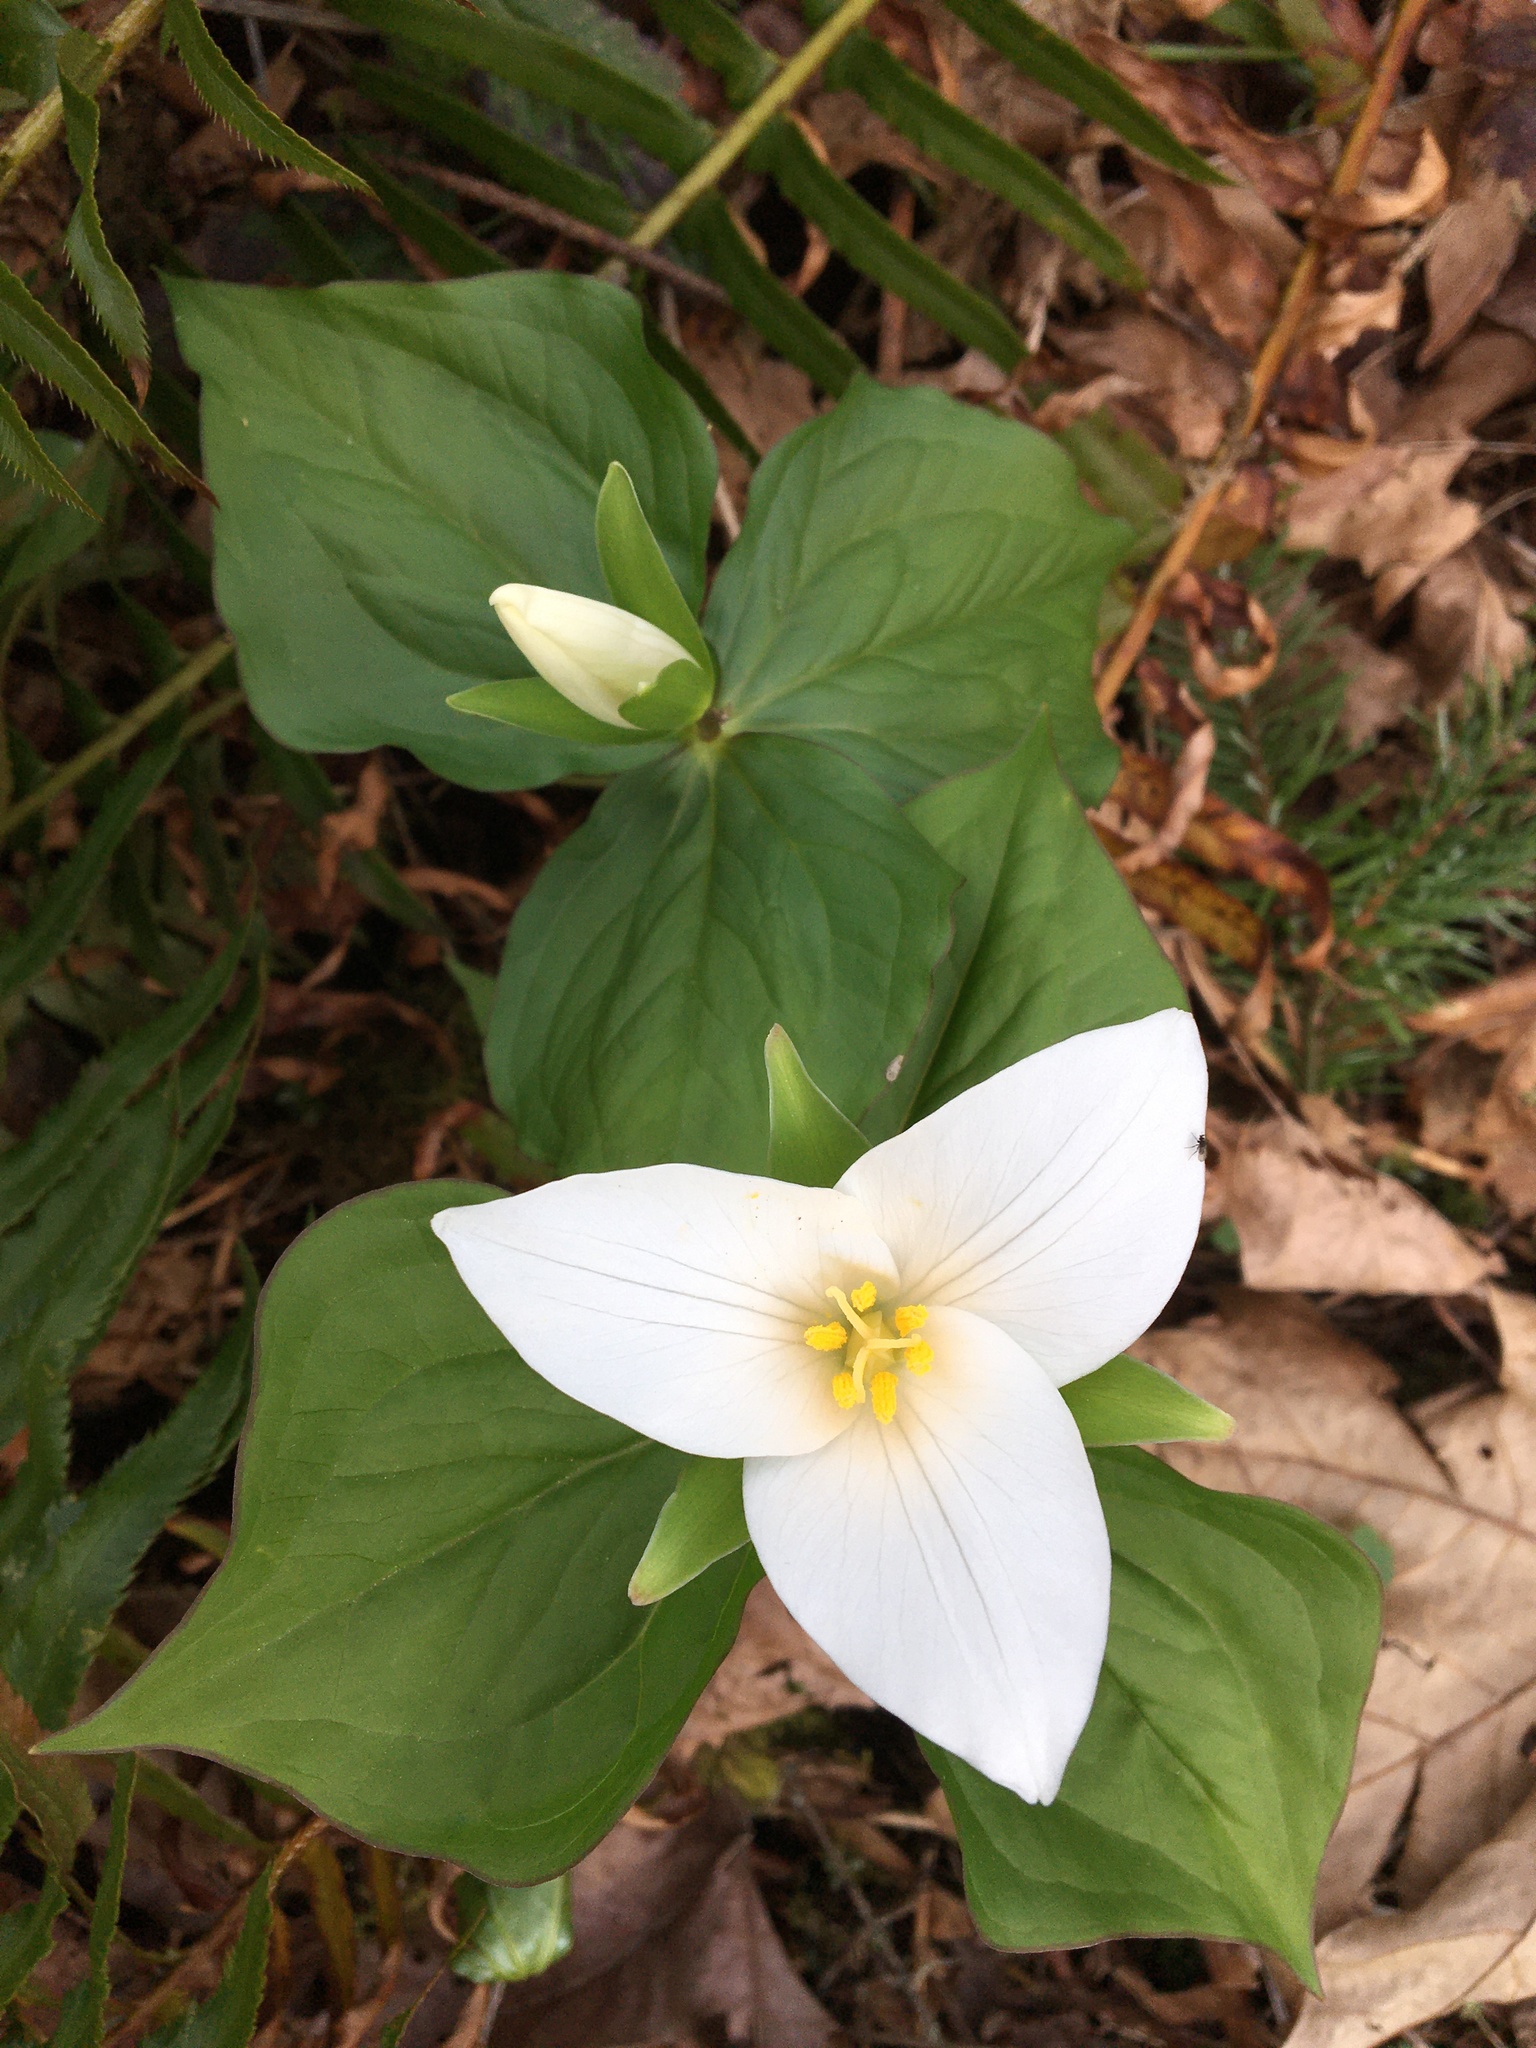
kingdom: Plantae
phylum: Tracheophyta
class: Liliopsida
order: Liliales
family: Melanthiaceae
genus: Trillium
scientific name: Trillium ovatum
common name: Pacific trillium
